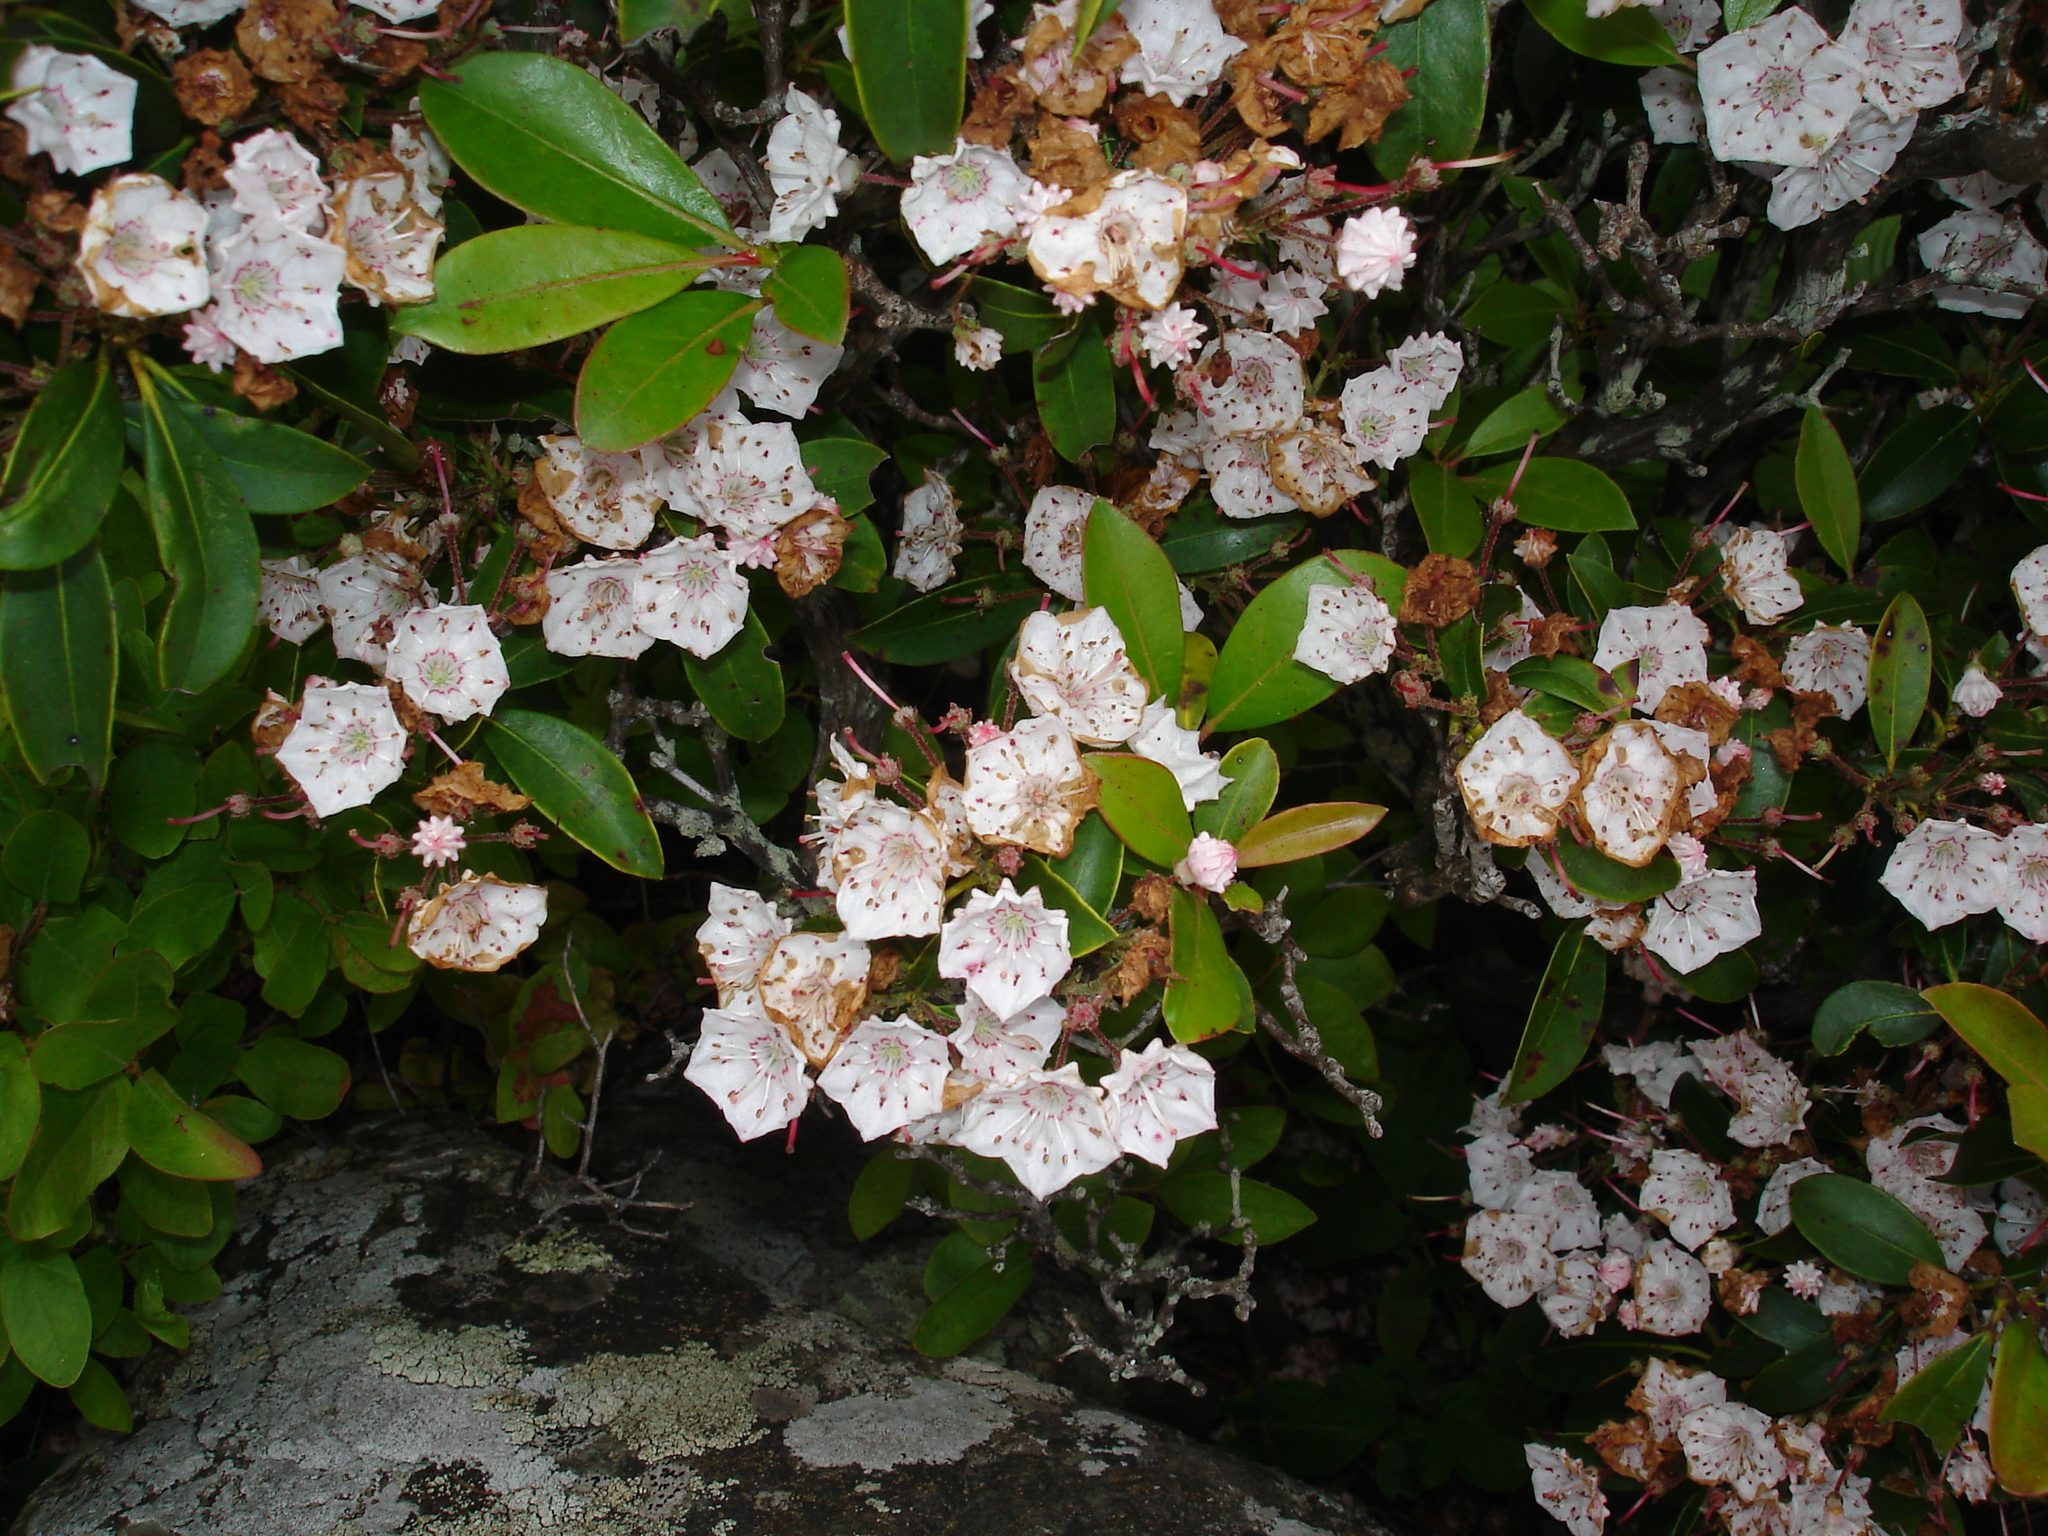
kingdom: Plantae
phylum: Tracheophyta
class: Magnoliopsida
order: Ericales
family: Ericaceae
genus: Kalmia
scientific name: Kalmia latifolia
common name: Mountain-laurel
